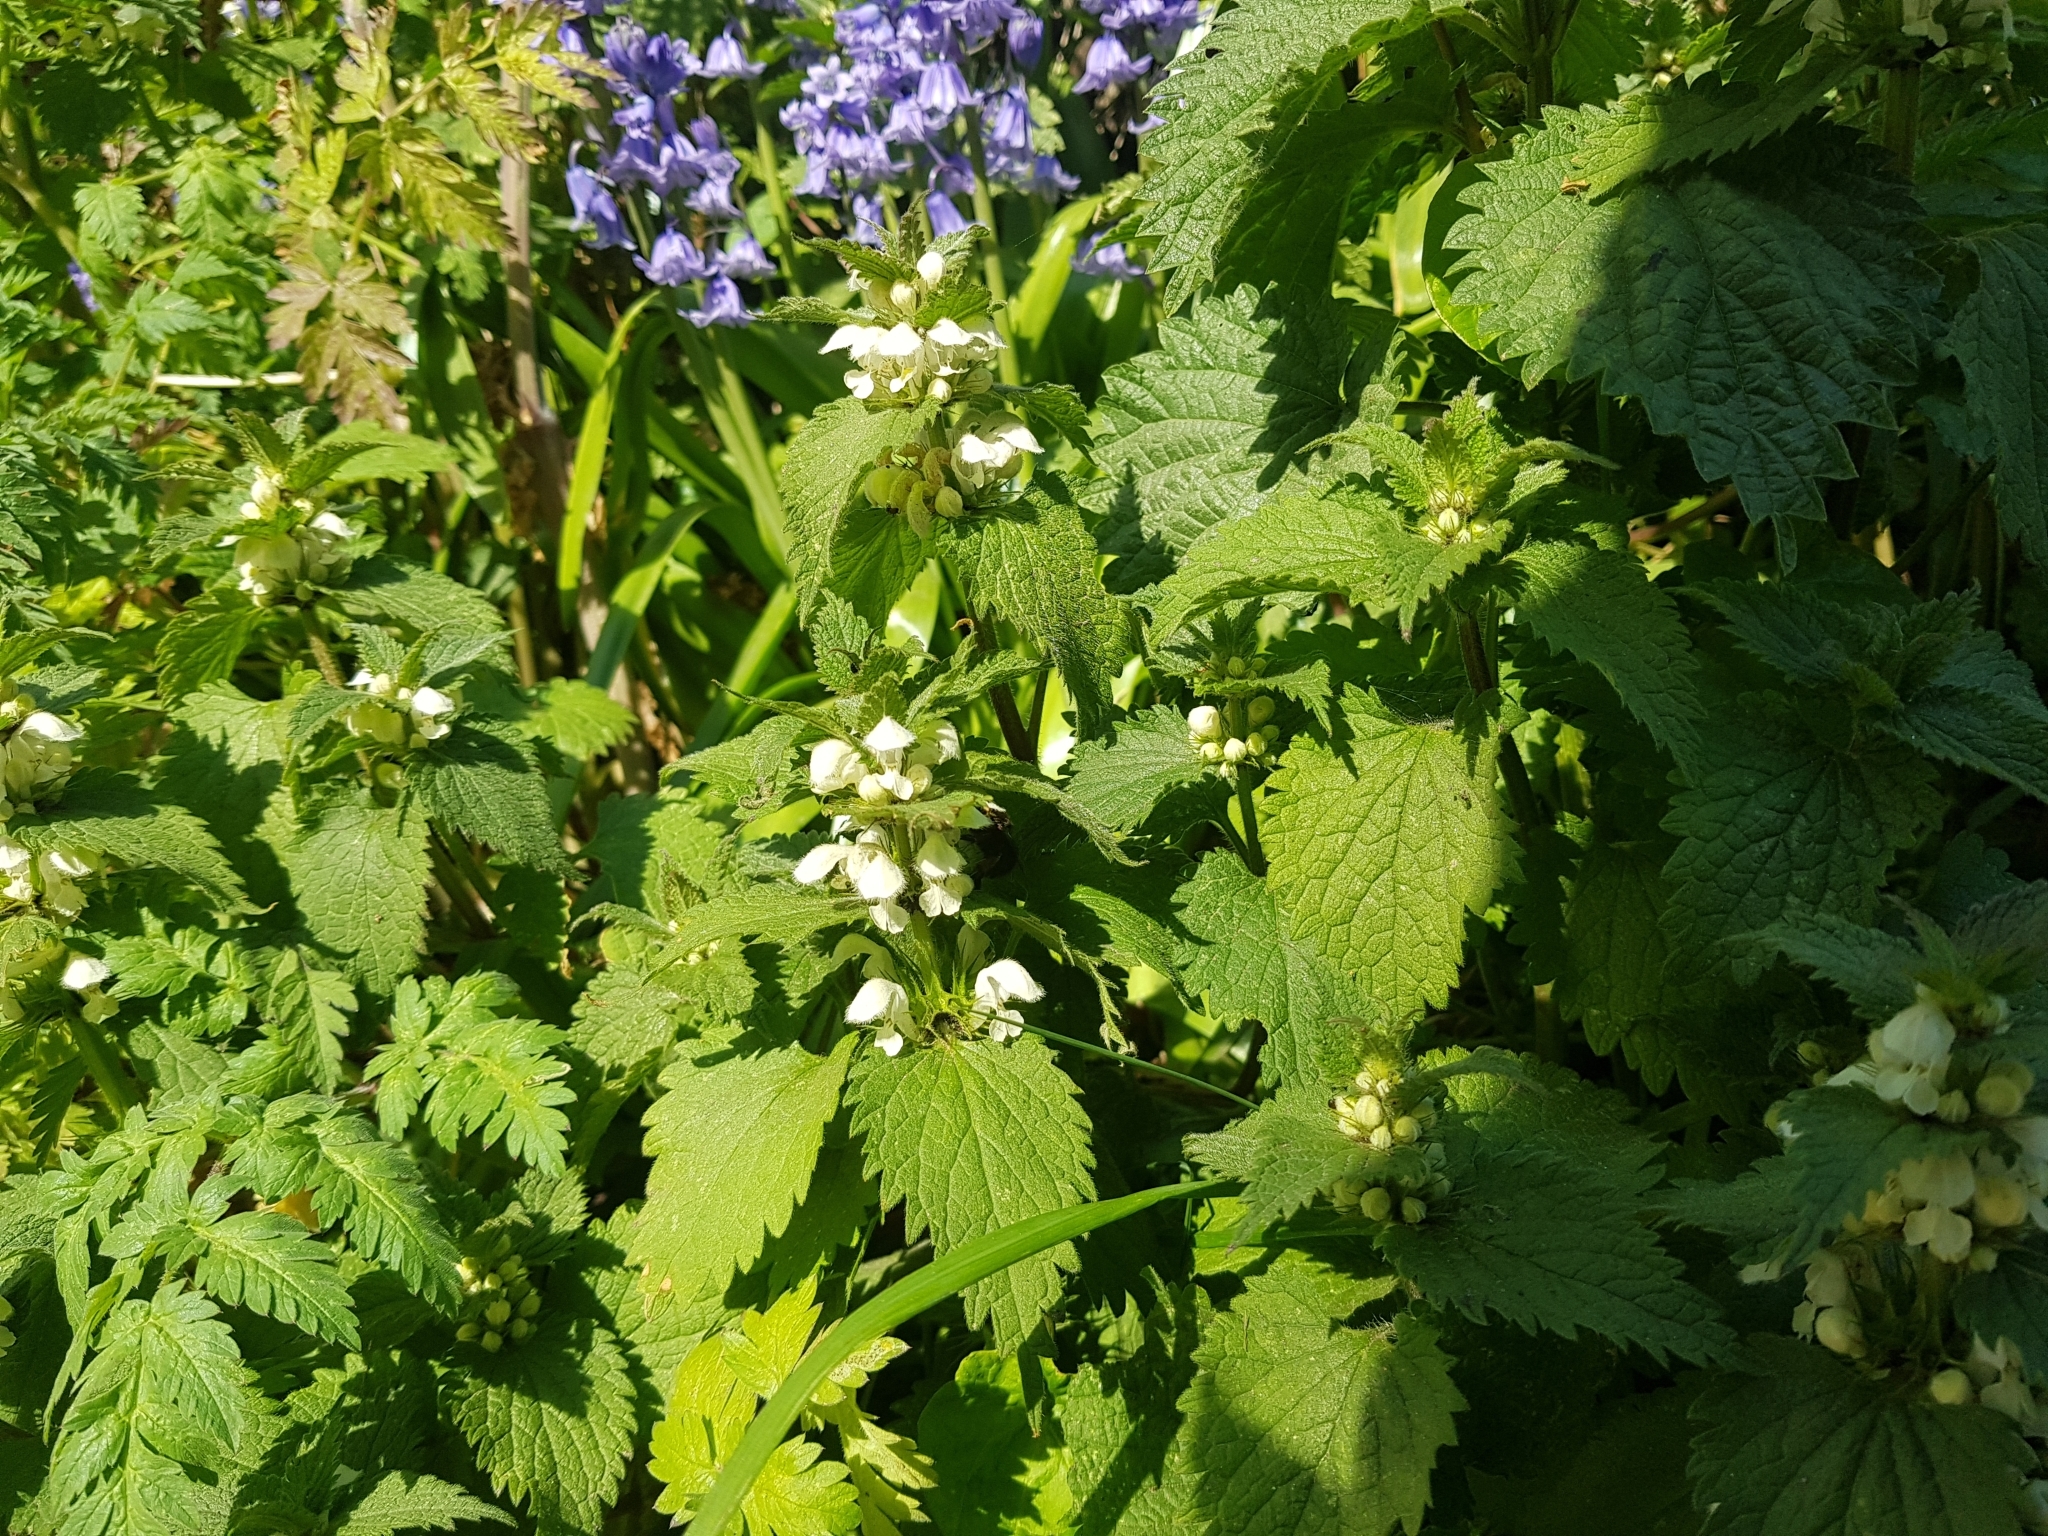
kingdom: Plantae
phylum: Tracheophyta
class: Magnoliopsida
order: Lamiales
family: Lamiaceae
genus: Lamium
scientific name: Lamium album
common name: White dead-nettle
